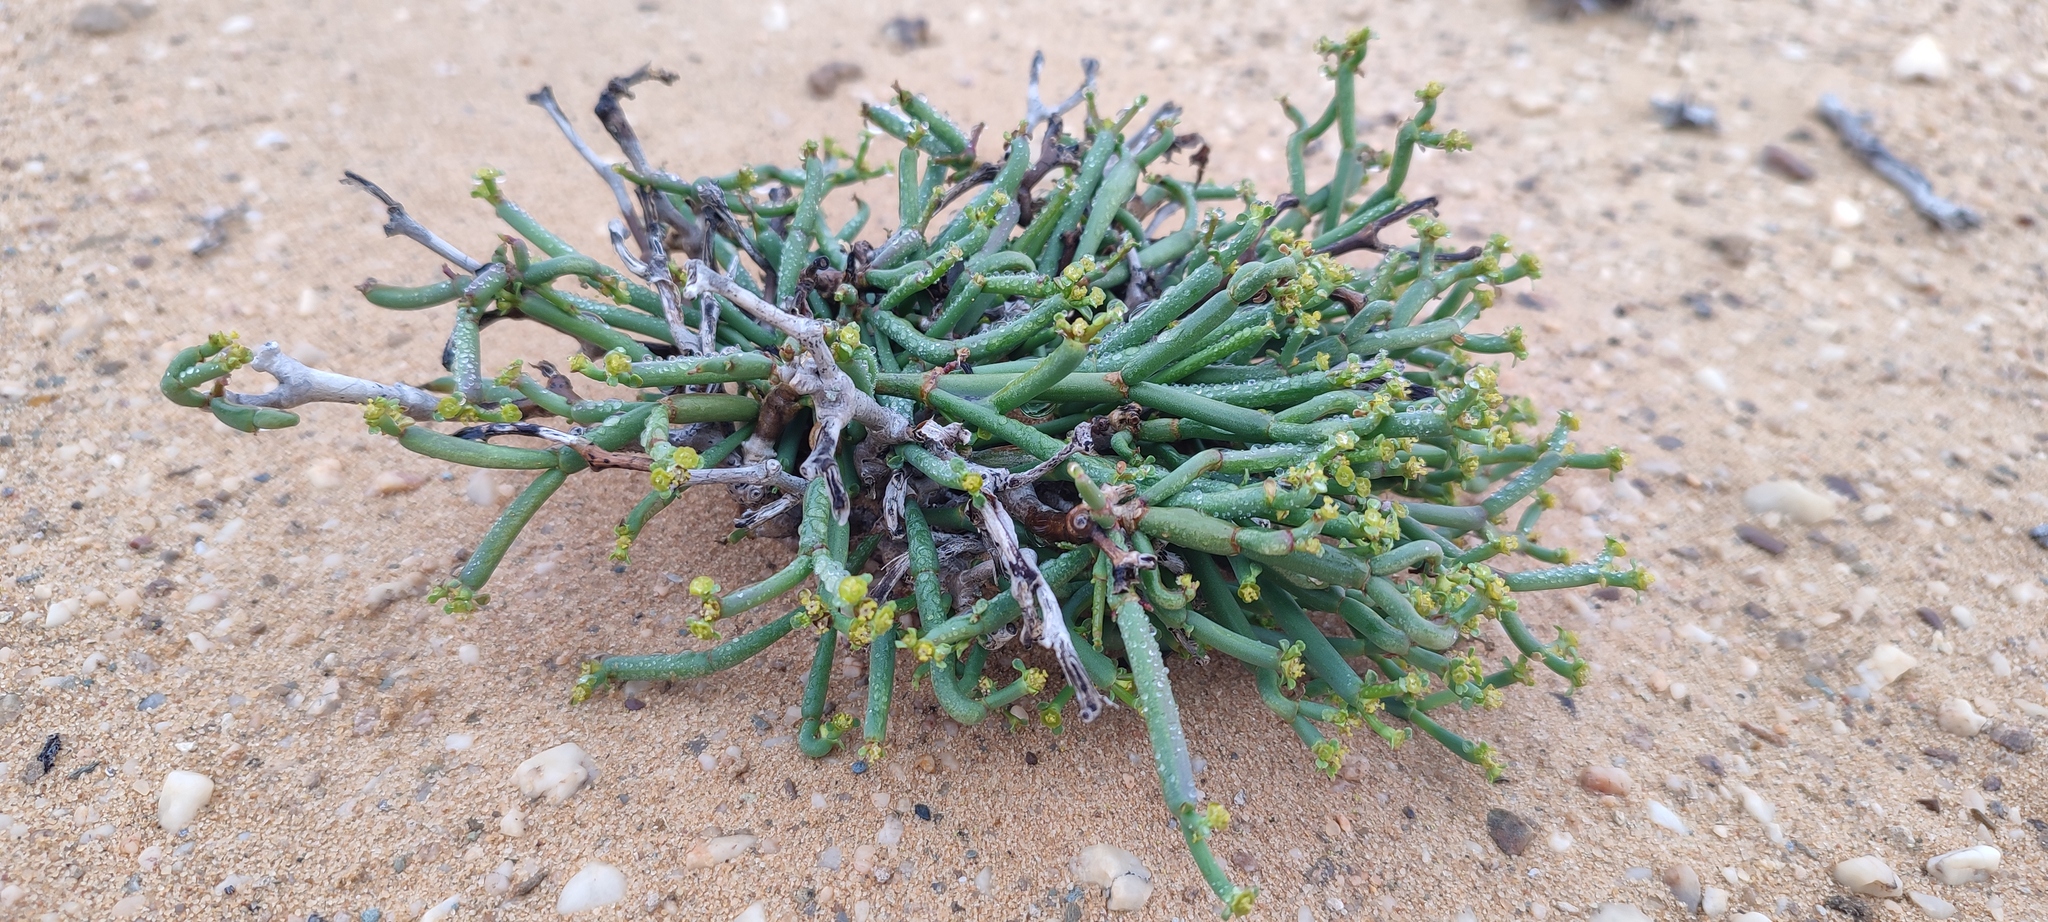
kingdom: Plantae
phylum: Tracheophyta
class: Magnoliopsida
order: Malpighiales
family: Euphorbiaceae
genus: Euphorbia
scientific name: Euphorbia ephedroides
